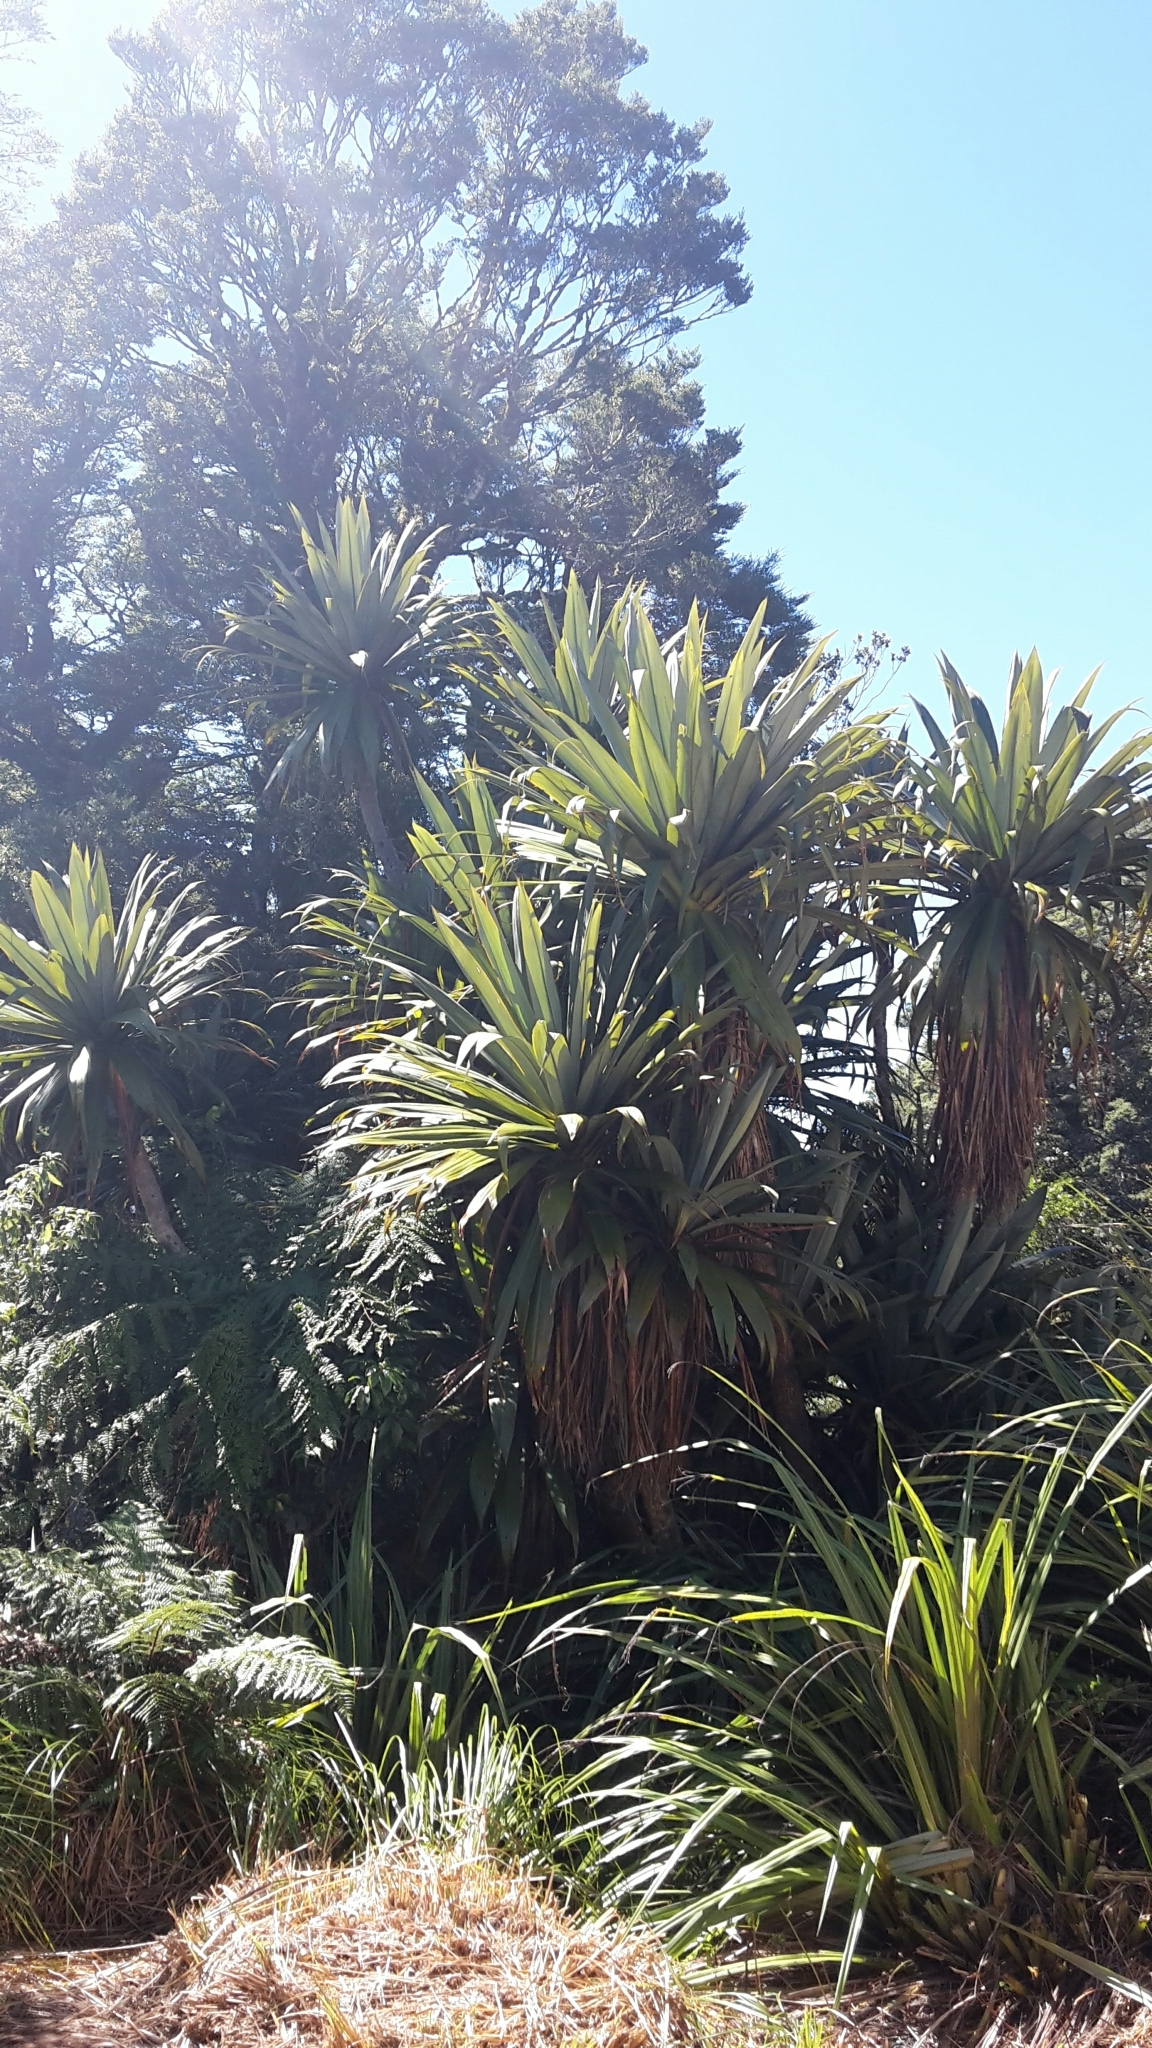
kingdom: Plantae
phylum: Tracheophyta
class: Liliopsida
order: Asparagales
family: Asparagaceae
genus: Cordyline
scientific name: Cordyline indivisa
